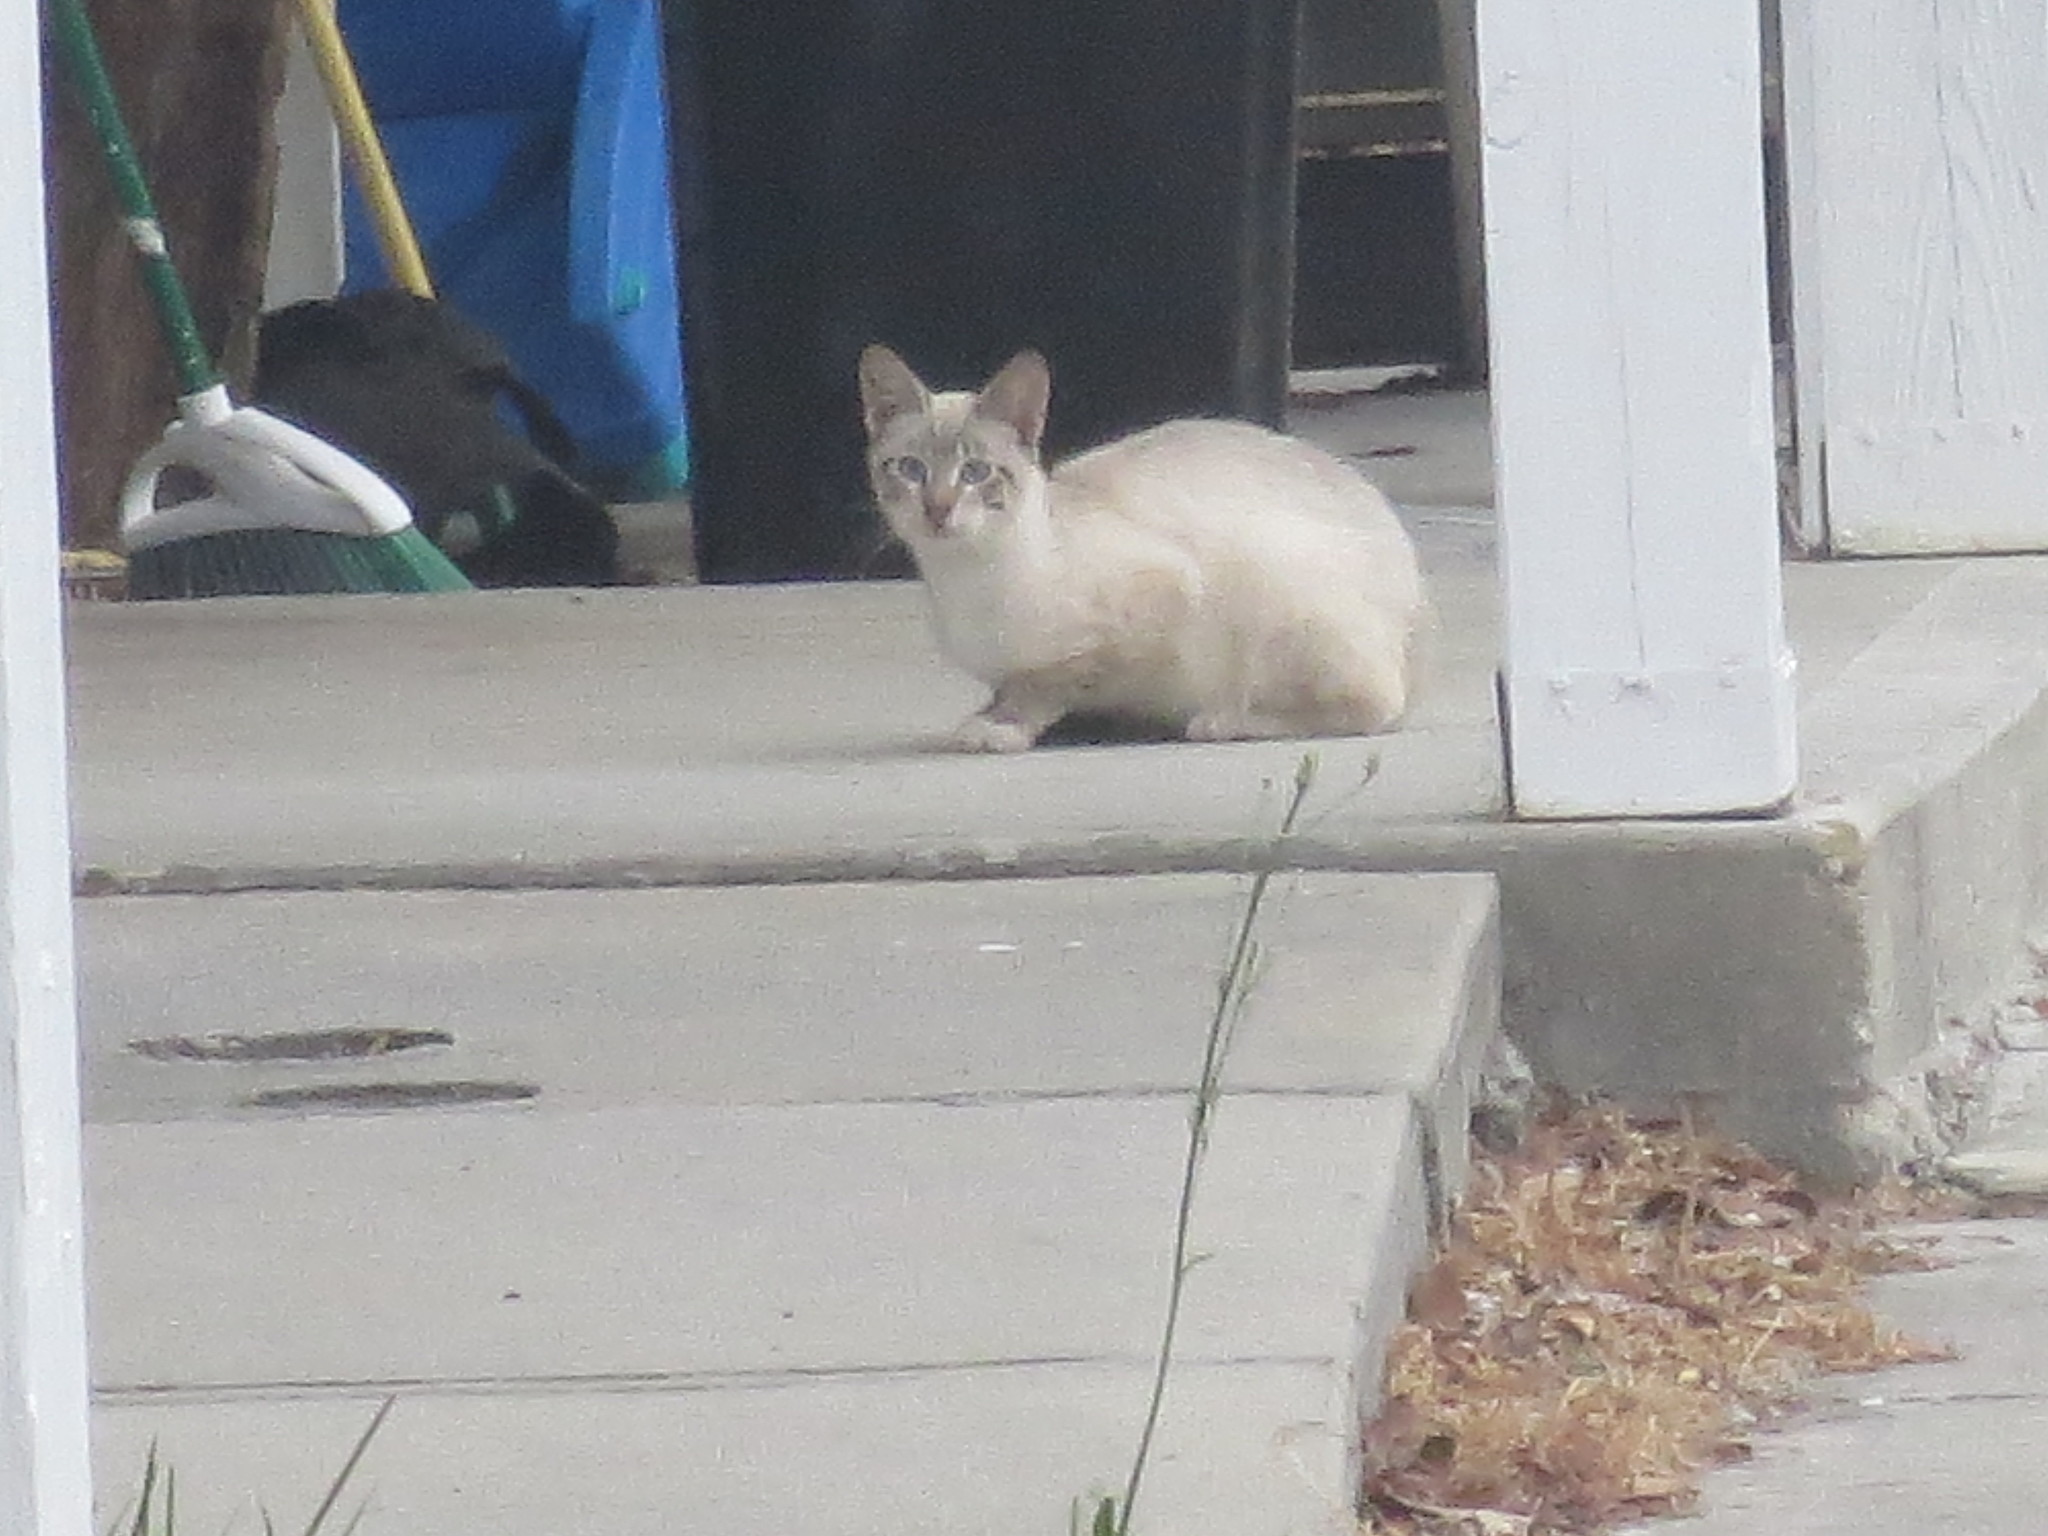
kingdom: Animalia
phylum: Chordata
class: Mammalia
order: Carnivora
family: Felidae
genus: Felis
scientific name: Felis catus
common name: Domestic cat
